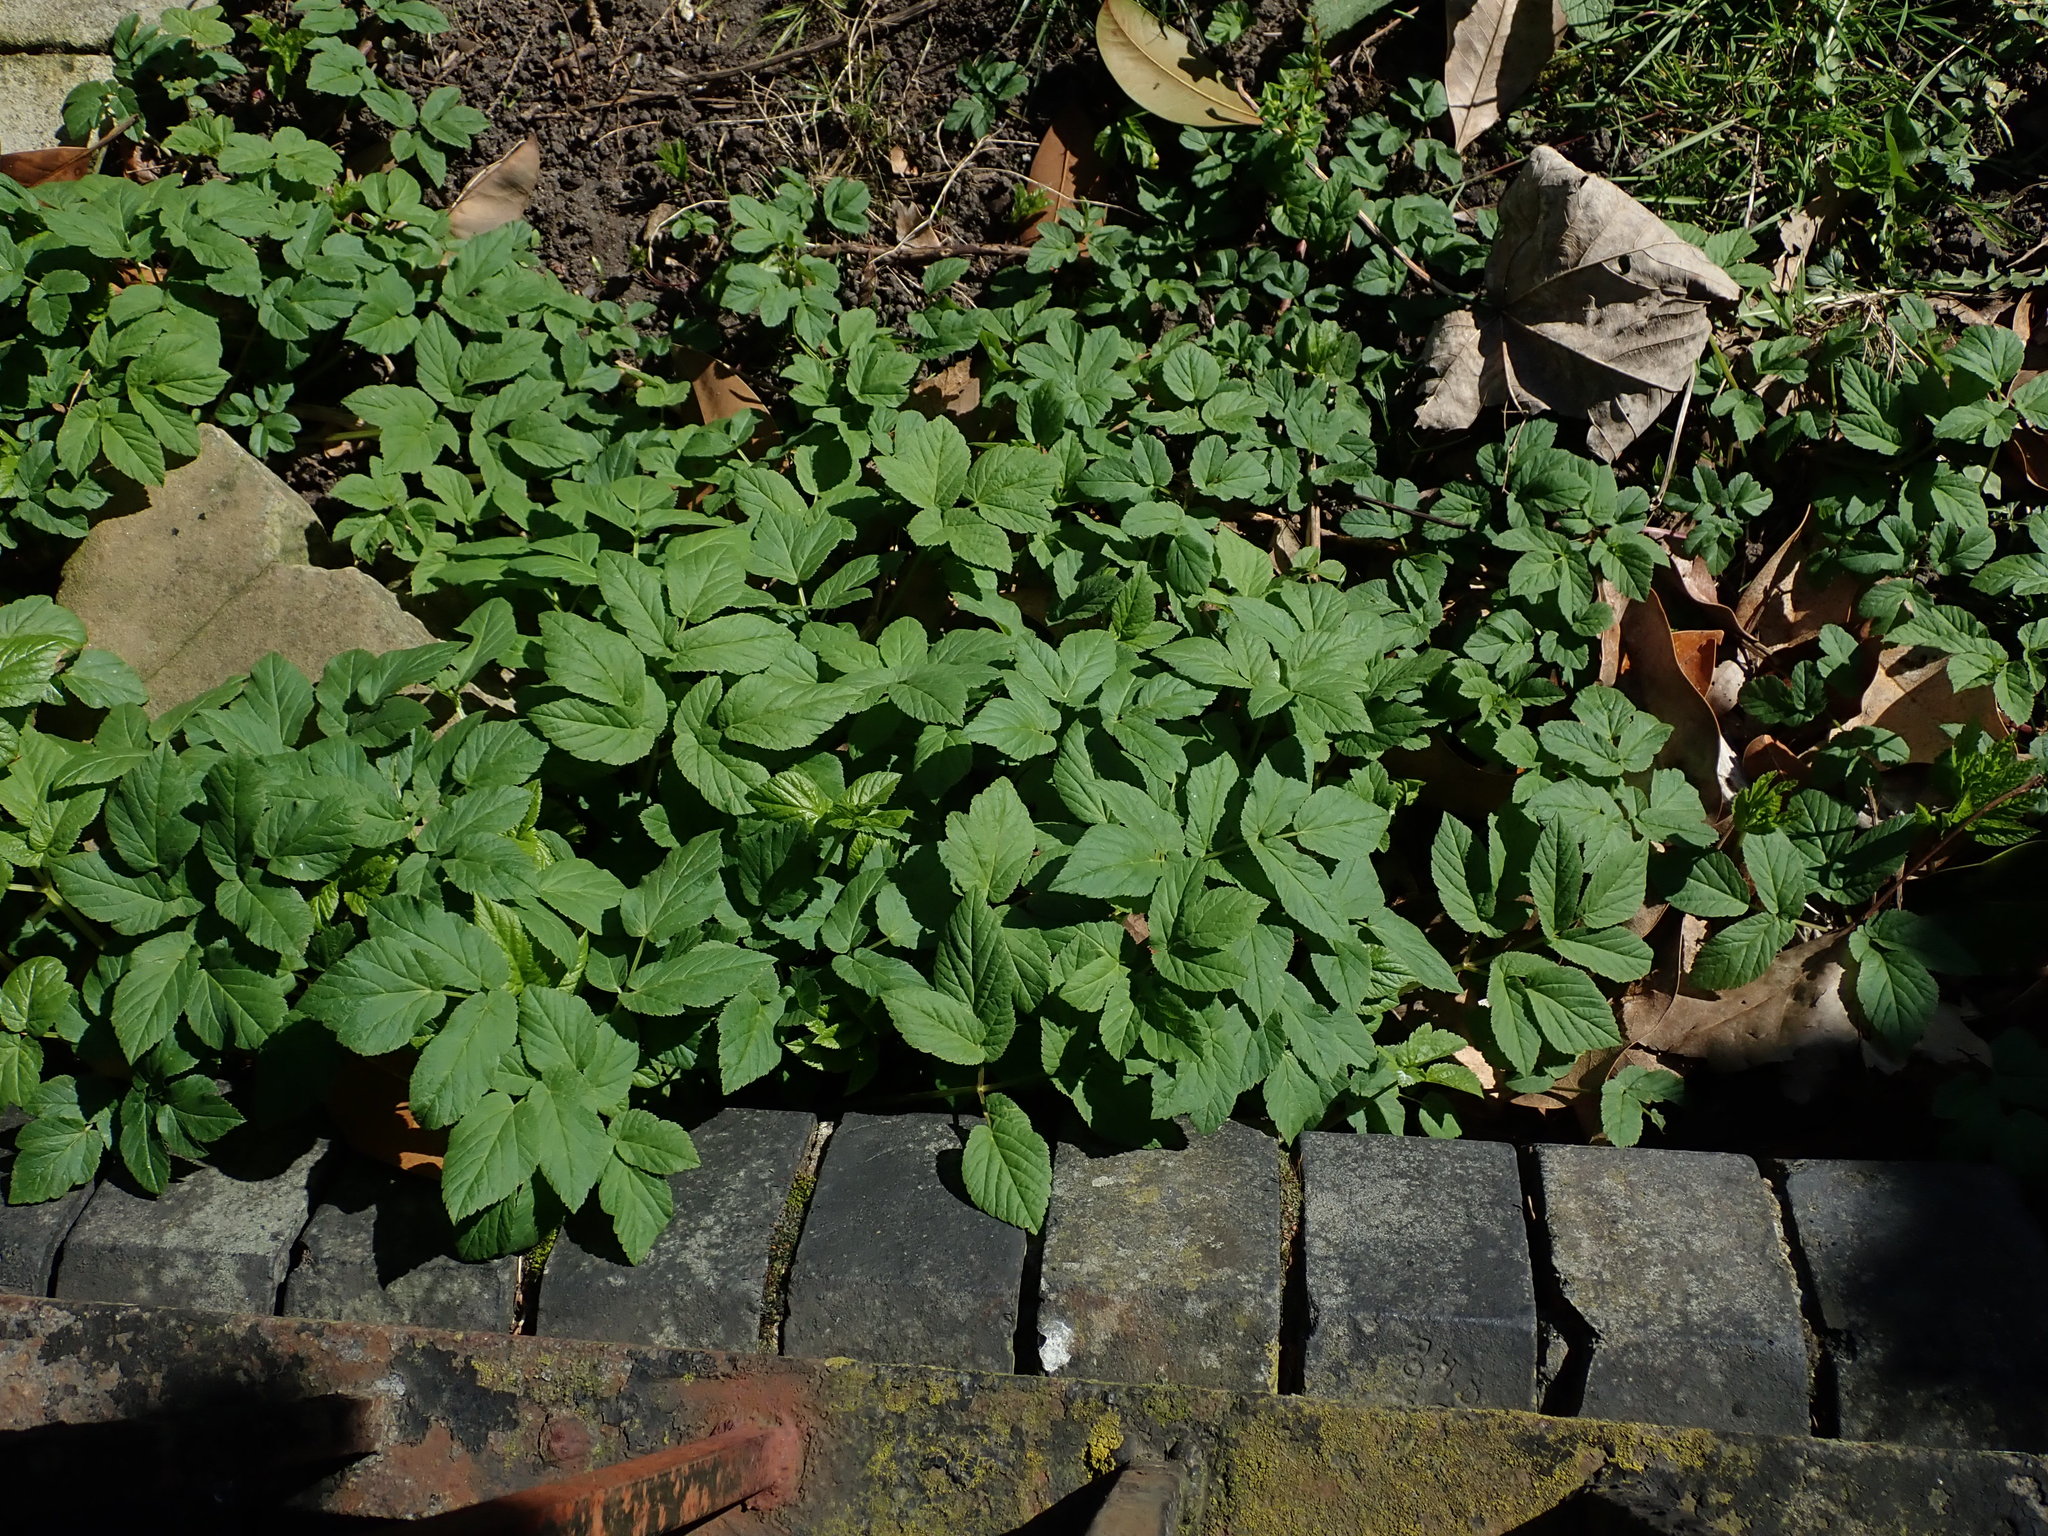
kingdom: Plantae
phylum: Tracheophyta
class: Magnoliopsida
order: Apiales
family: Apiaceae
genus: Aegopodium
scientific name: Aegopodium podagraria
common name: Ground-elder
